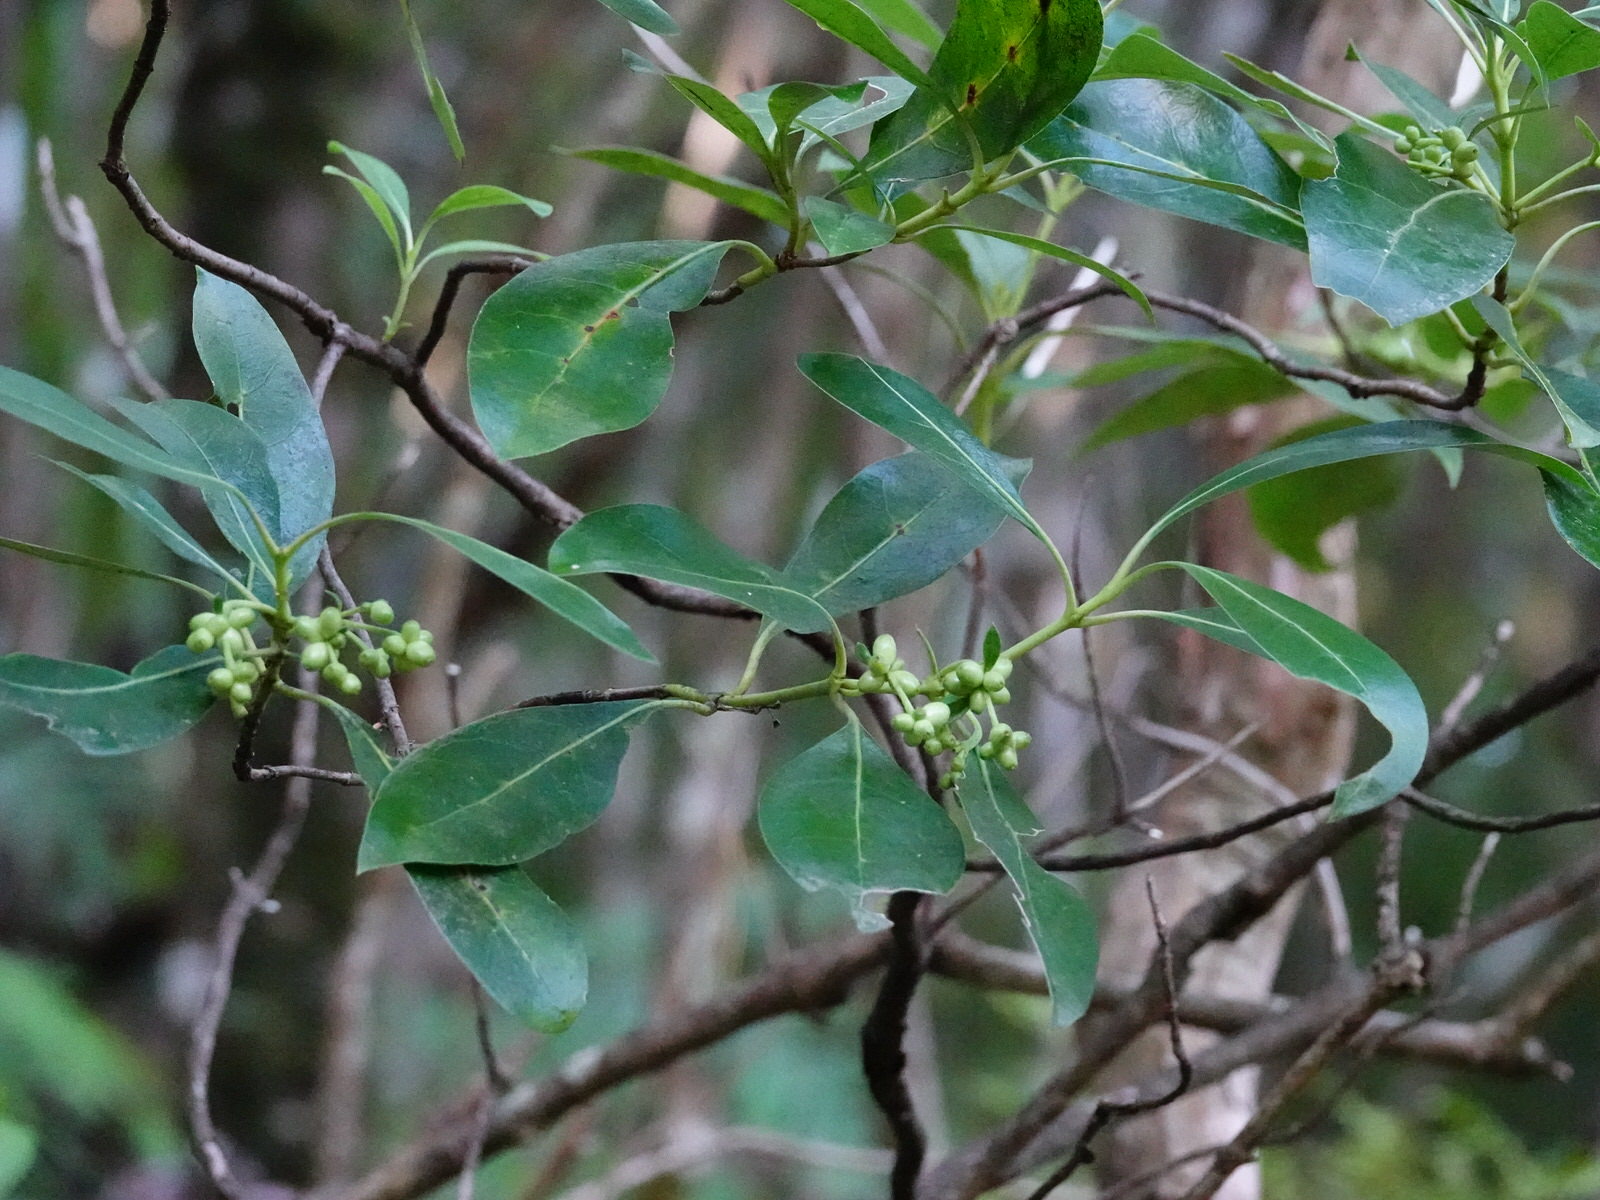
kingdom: Plantae
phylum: Tracheophyta
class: Magnoliopsida
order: Gentianales
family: Rubiaceae
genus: Coprosma
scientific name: Coprosma lucida
